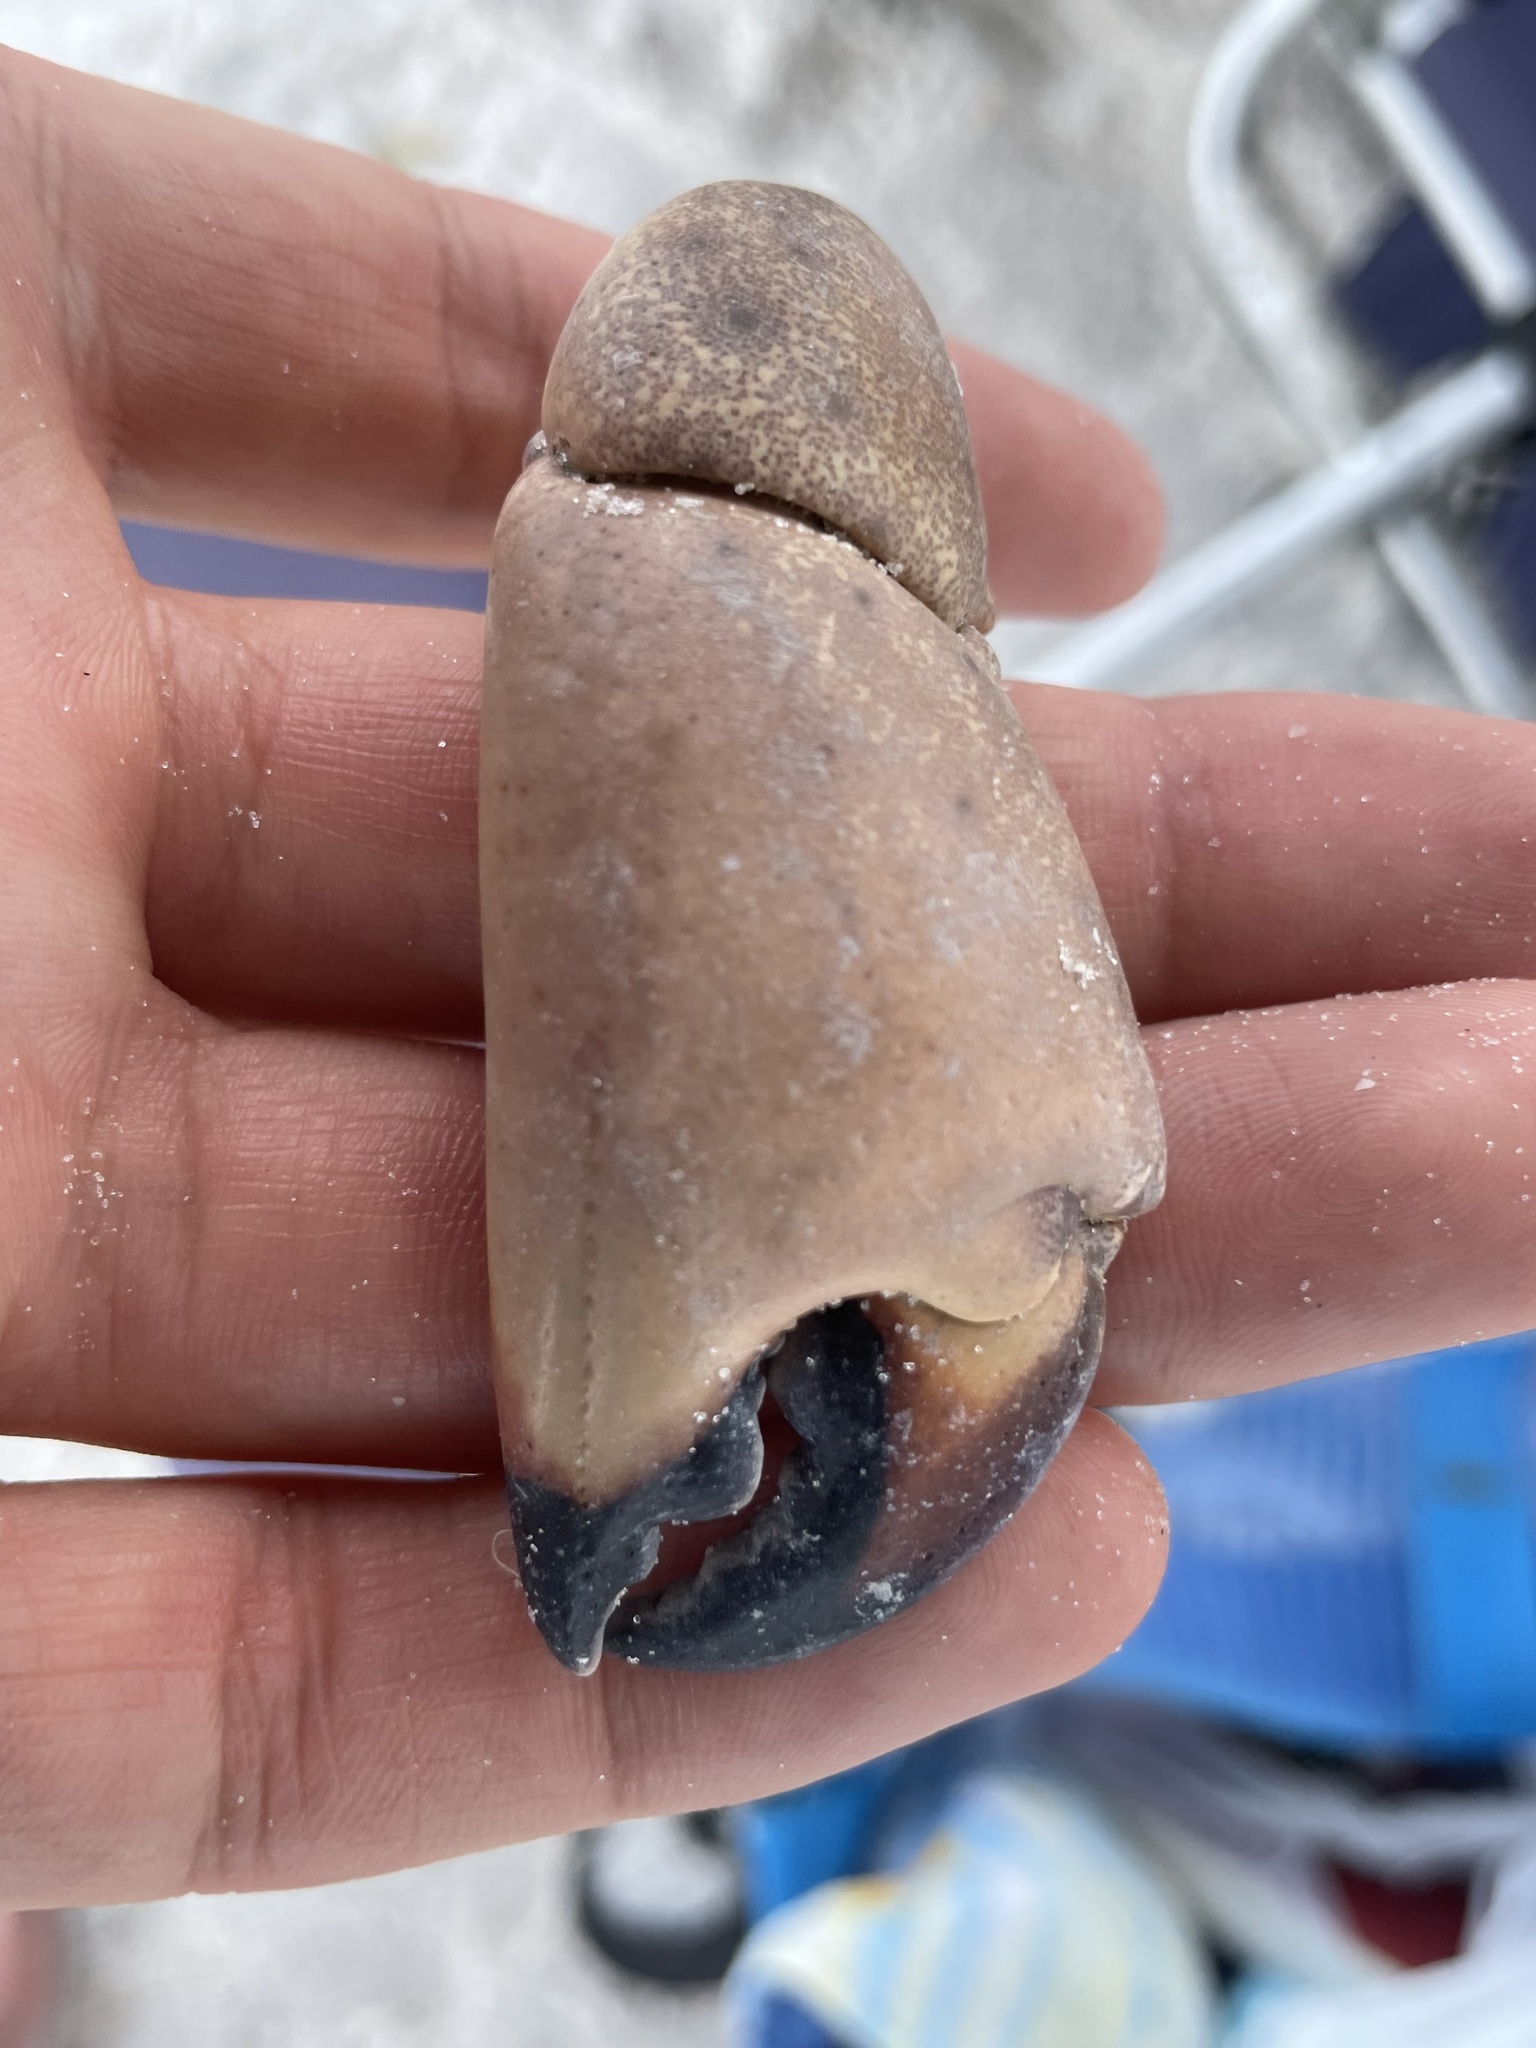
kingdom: Animalia
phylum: Arthropoda
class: Malacostraca
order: Decapoda
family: Menippidae
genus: Menippe
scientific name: Menippe mercenaria
